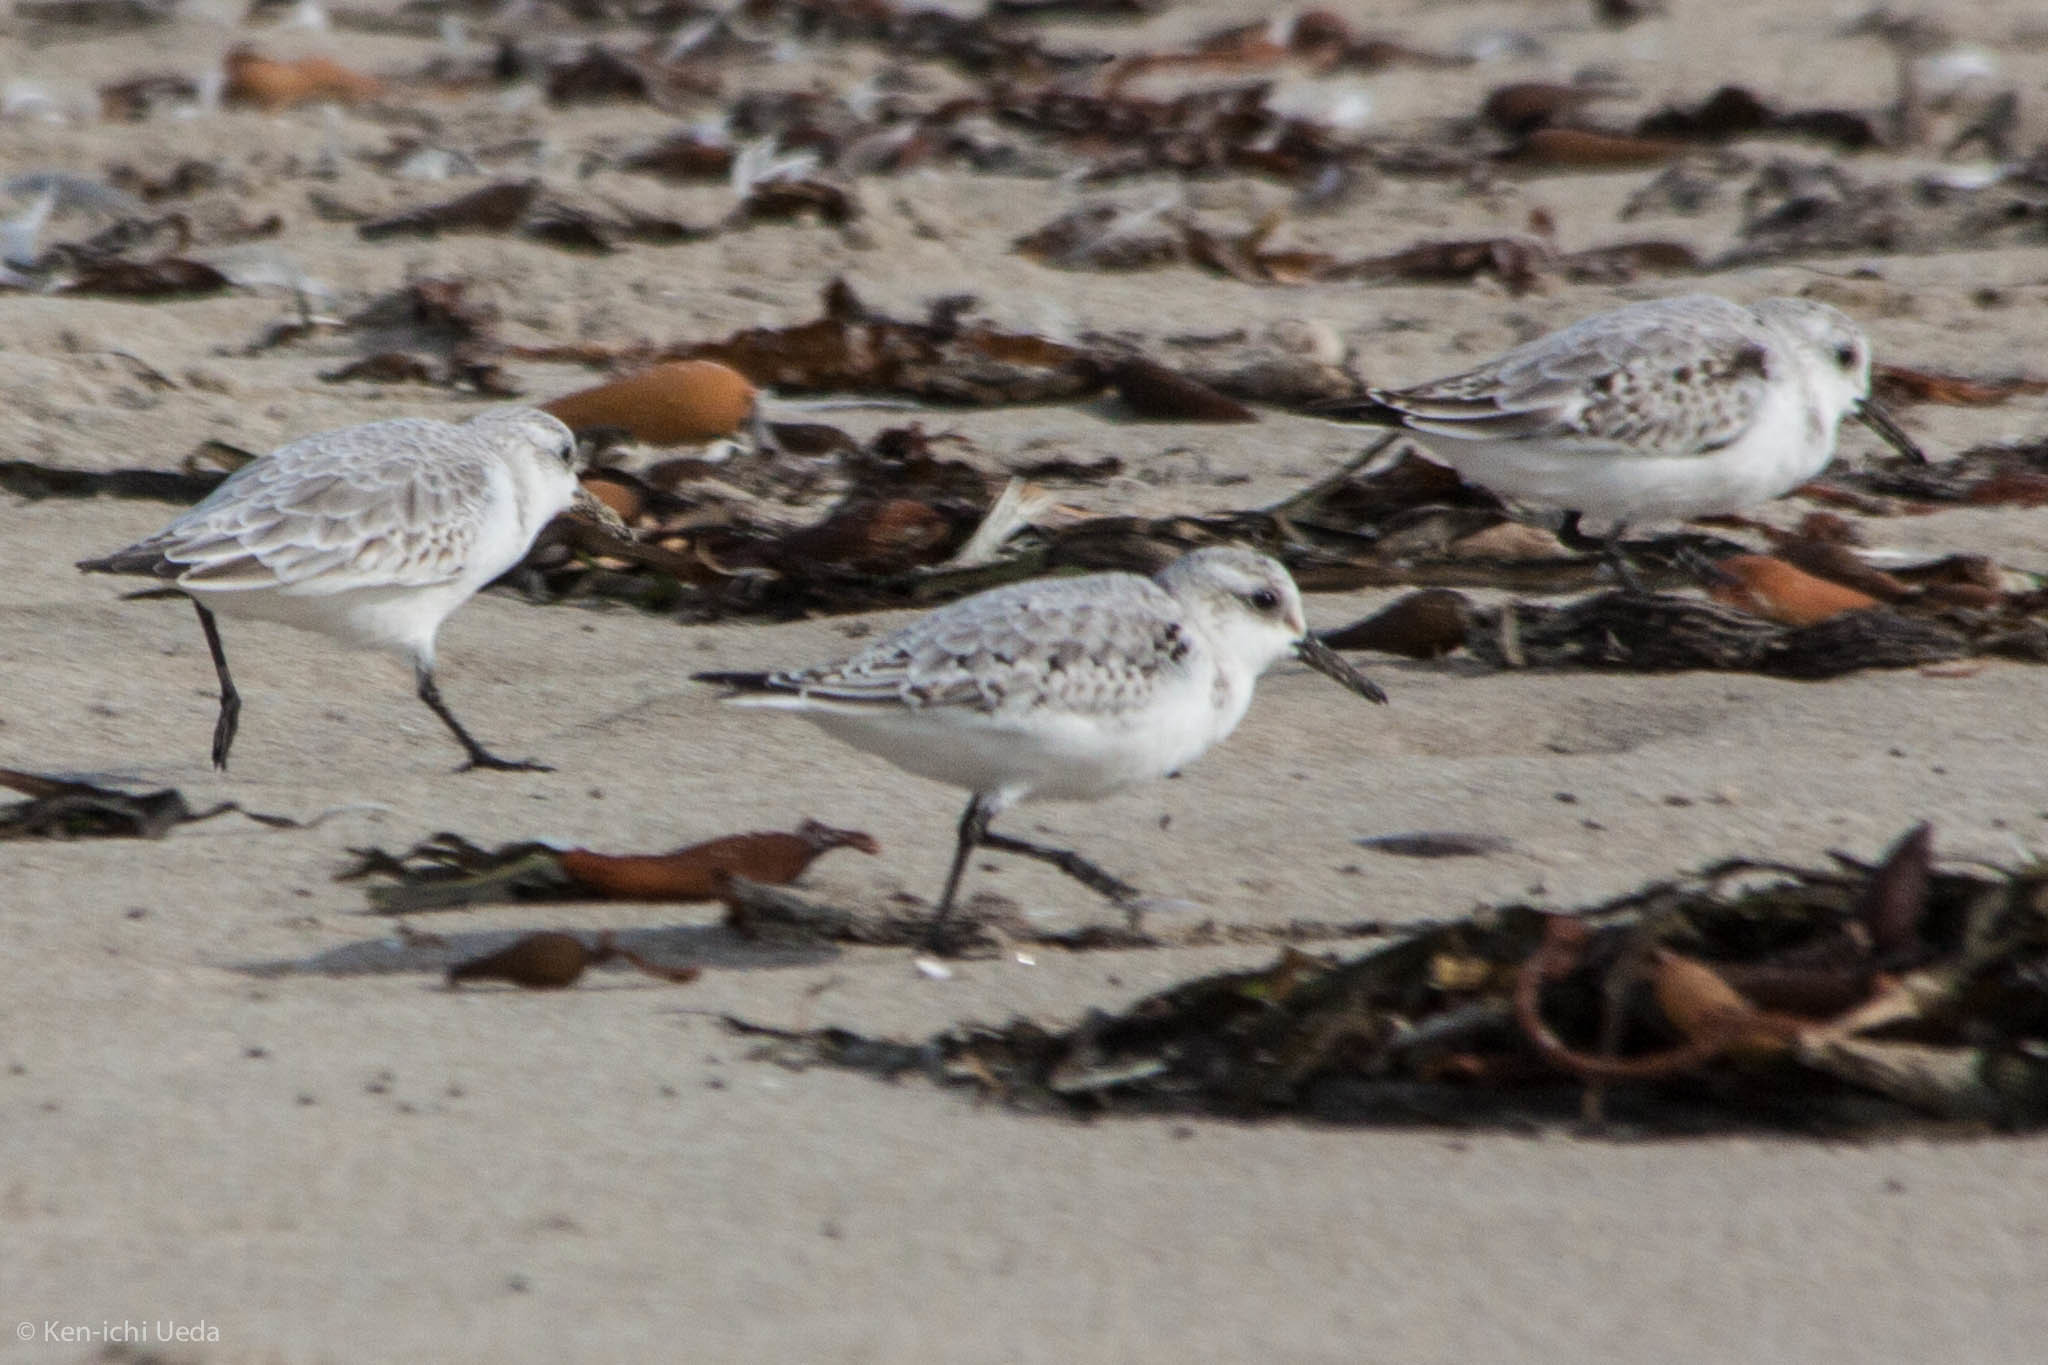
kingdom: Animalia
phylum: Chordata
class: Aves
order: Charadriiformes
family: Scolopacidae
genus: Calidris
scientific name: Calidris alba
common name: Sanderling
